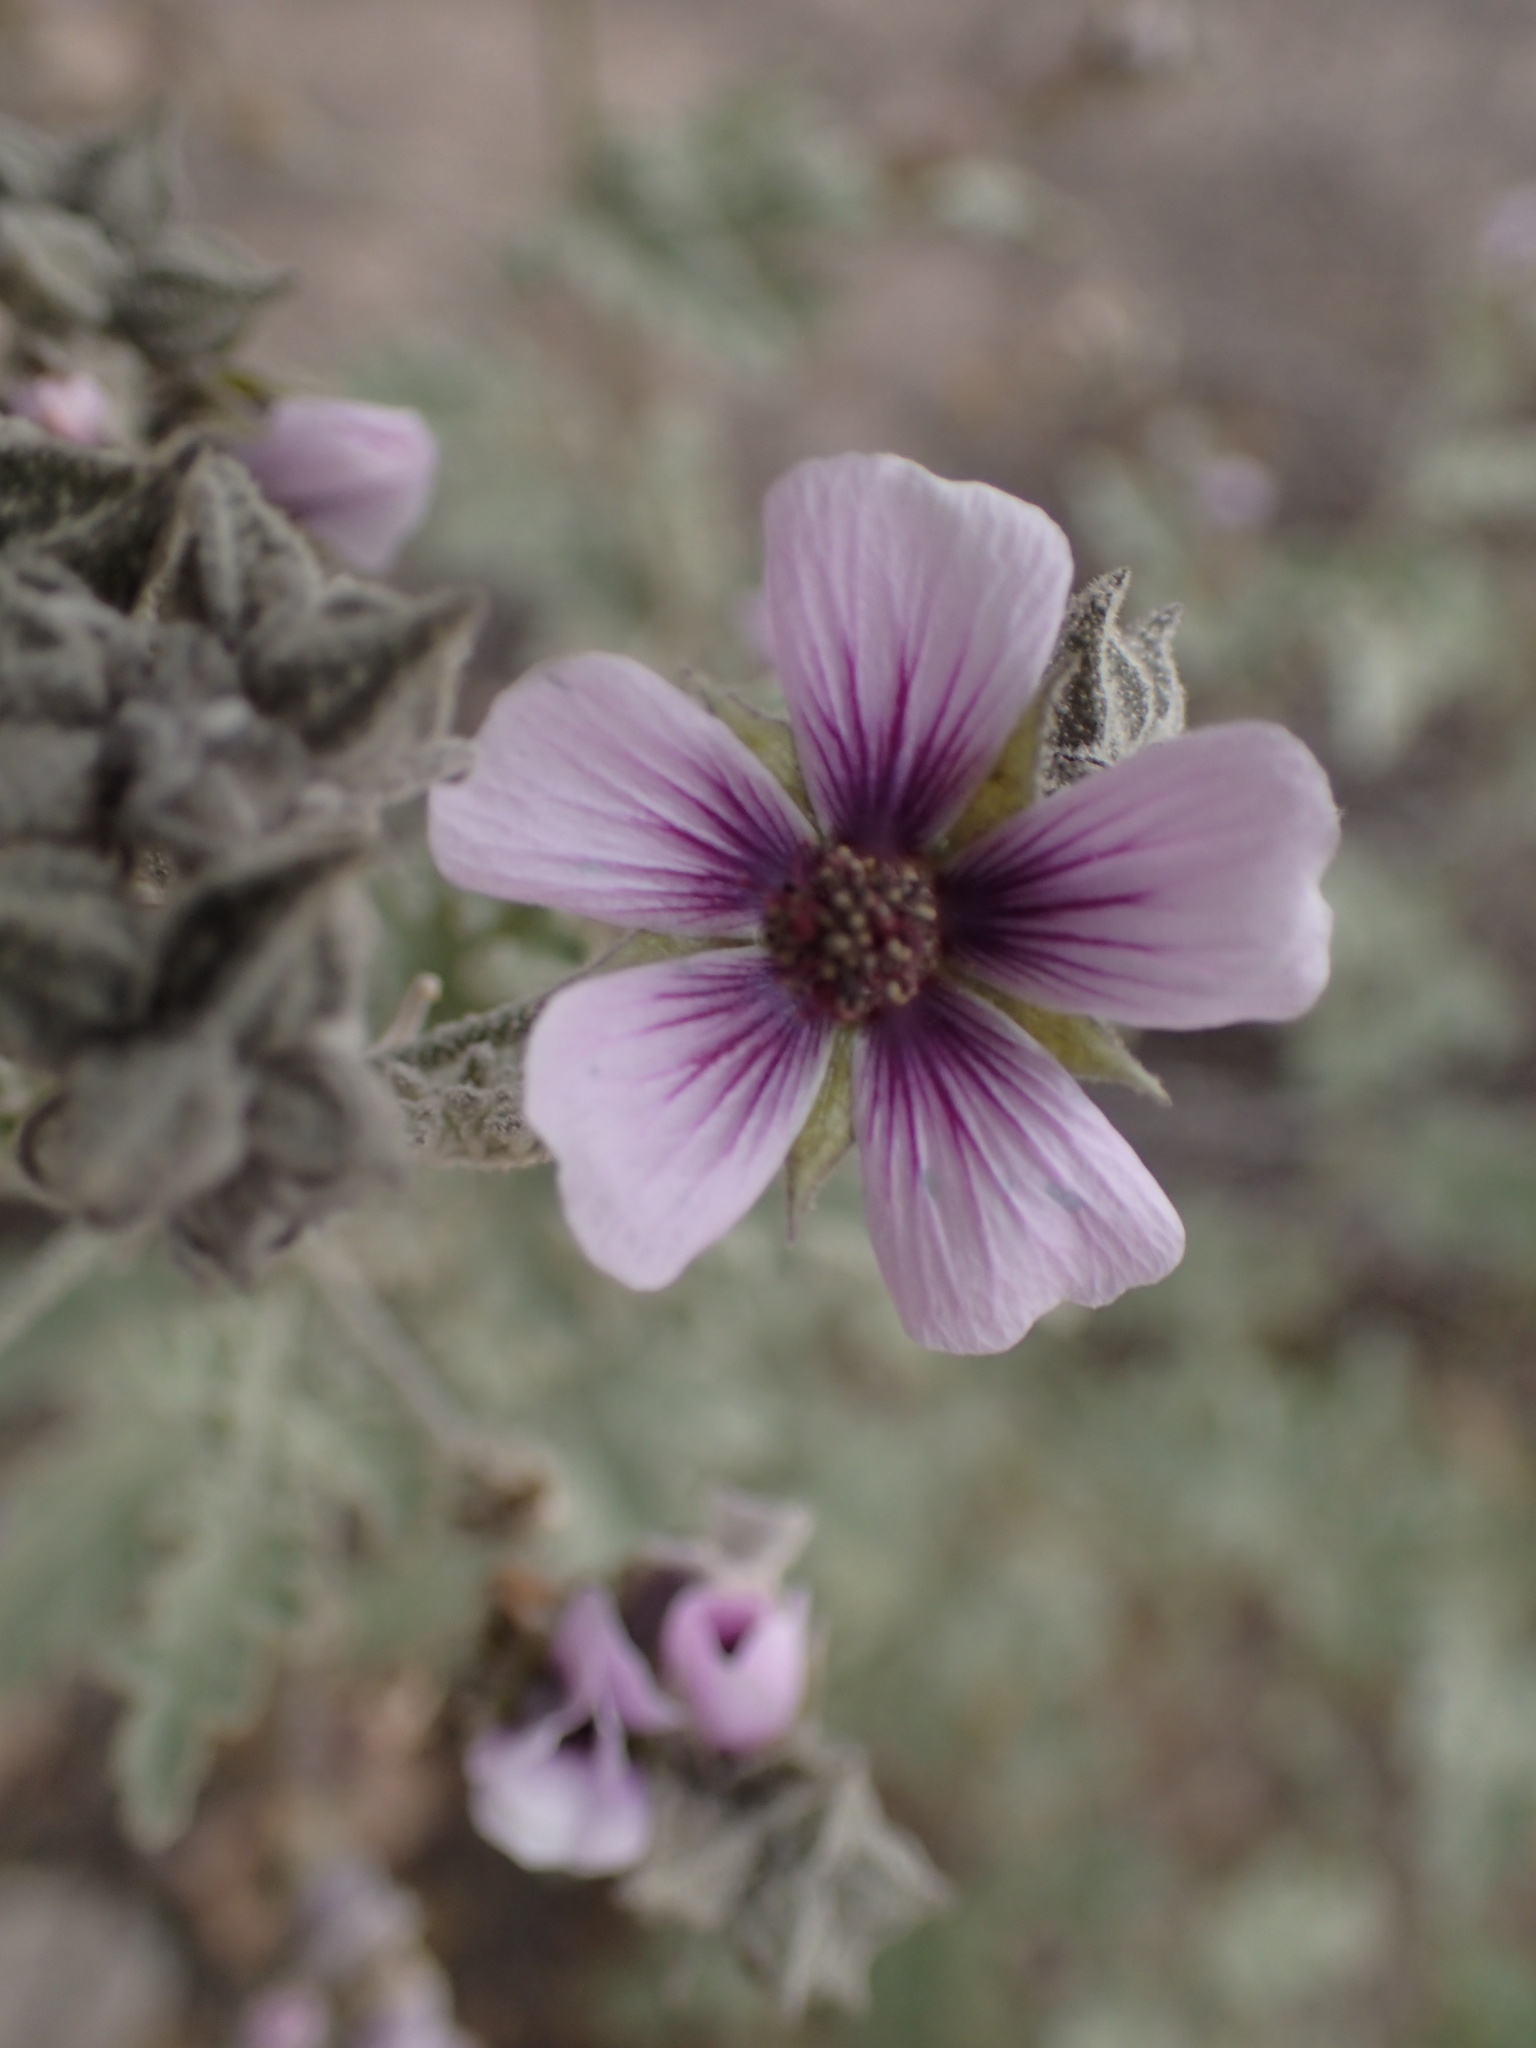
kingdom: Plantae
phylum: Tracheophyta
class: Magnoliopsida
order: Malvales
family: Malvaceae
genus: Tarasa
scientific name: Tarasa operculata
